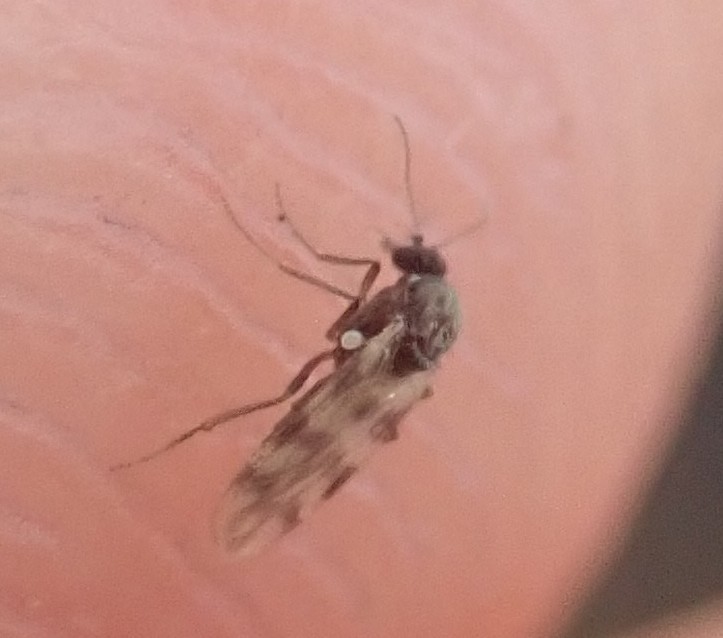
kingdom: Animalia
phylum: Arthropoda
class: Insecta
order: Diptera
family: Ceratopogonidae
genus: Culicoides
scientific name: Culicoides impunctatus
